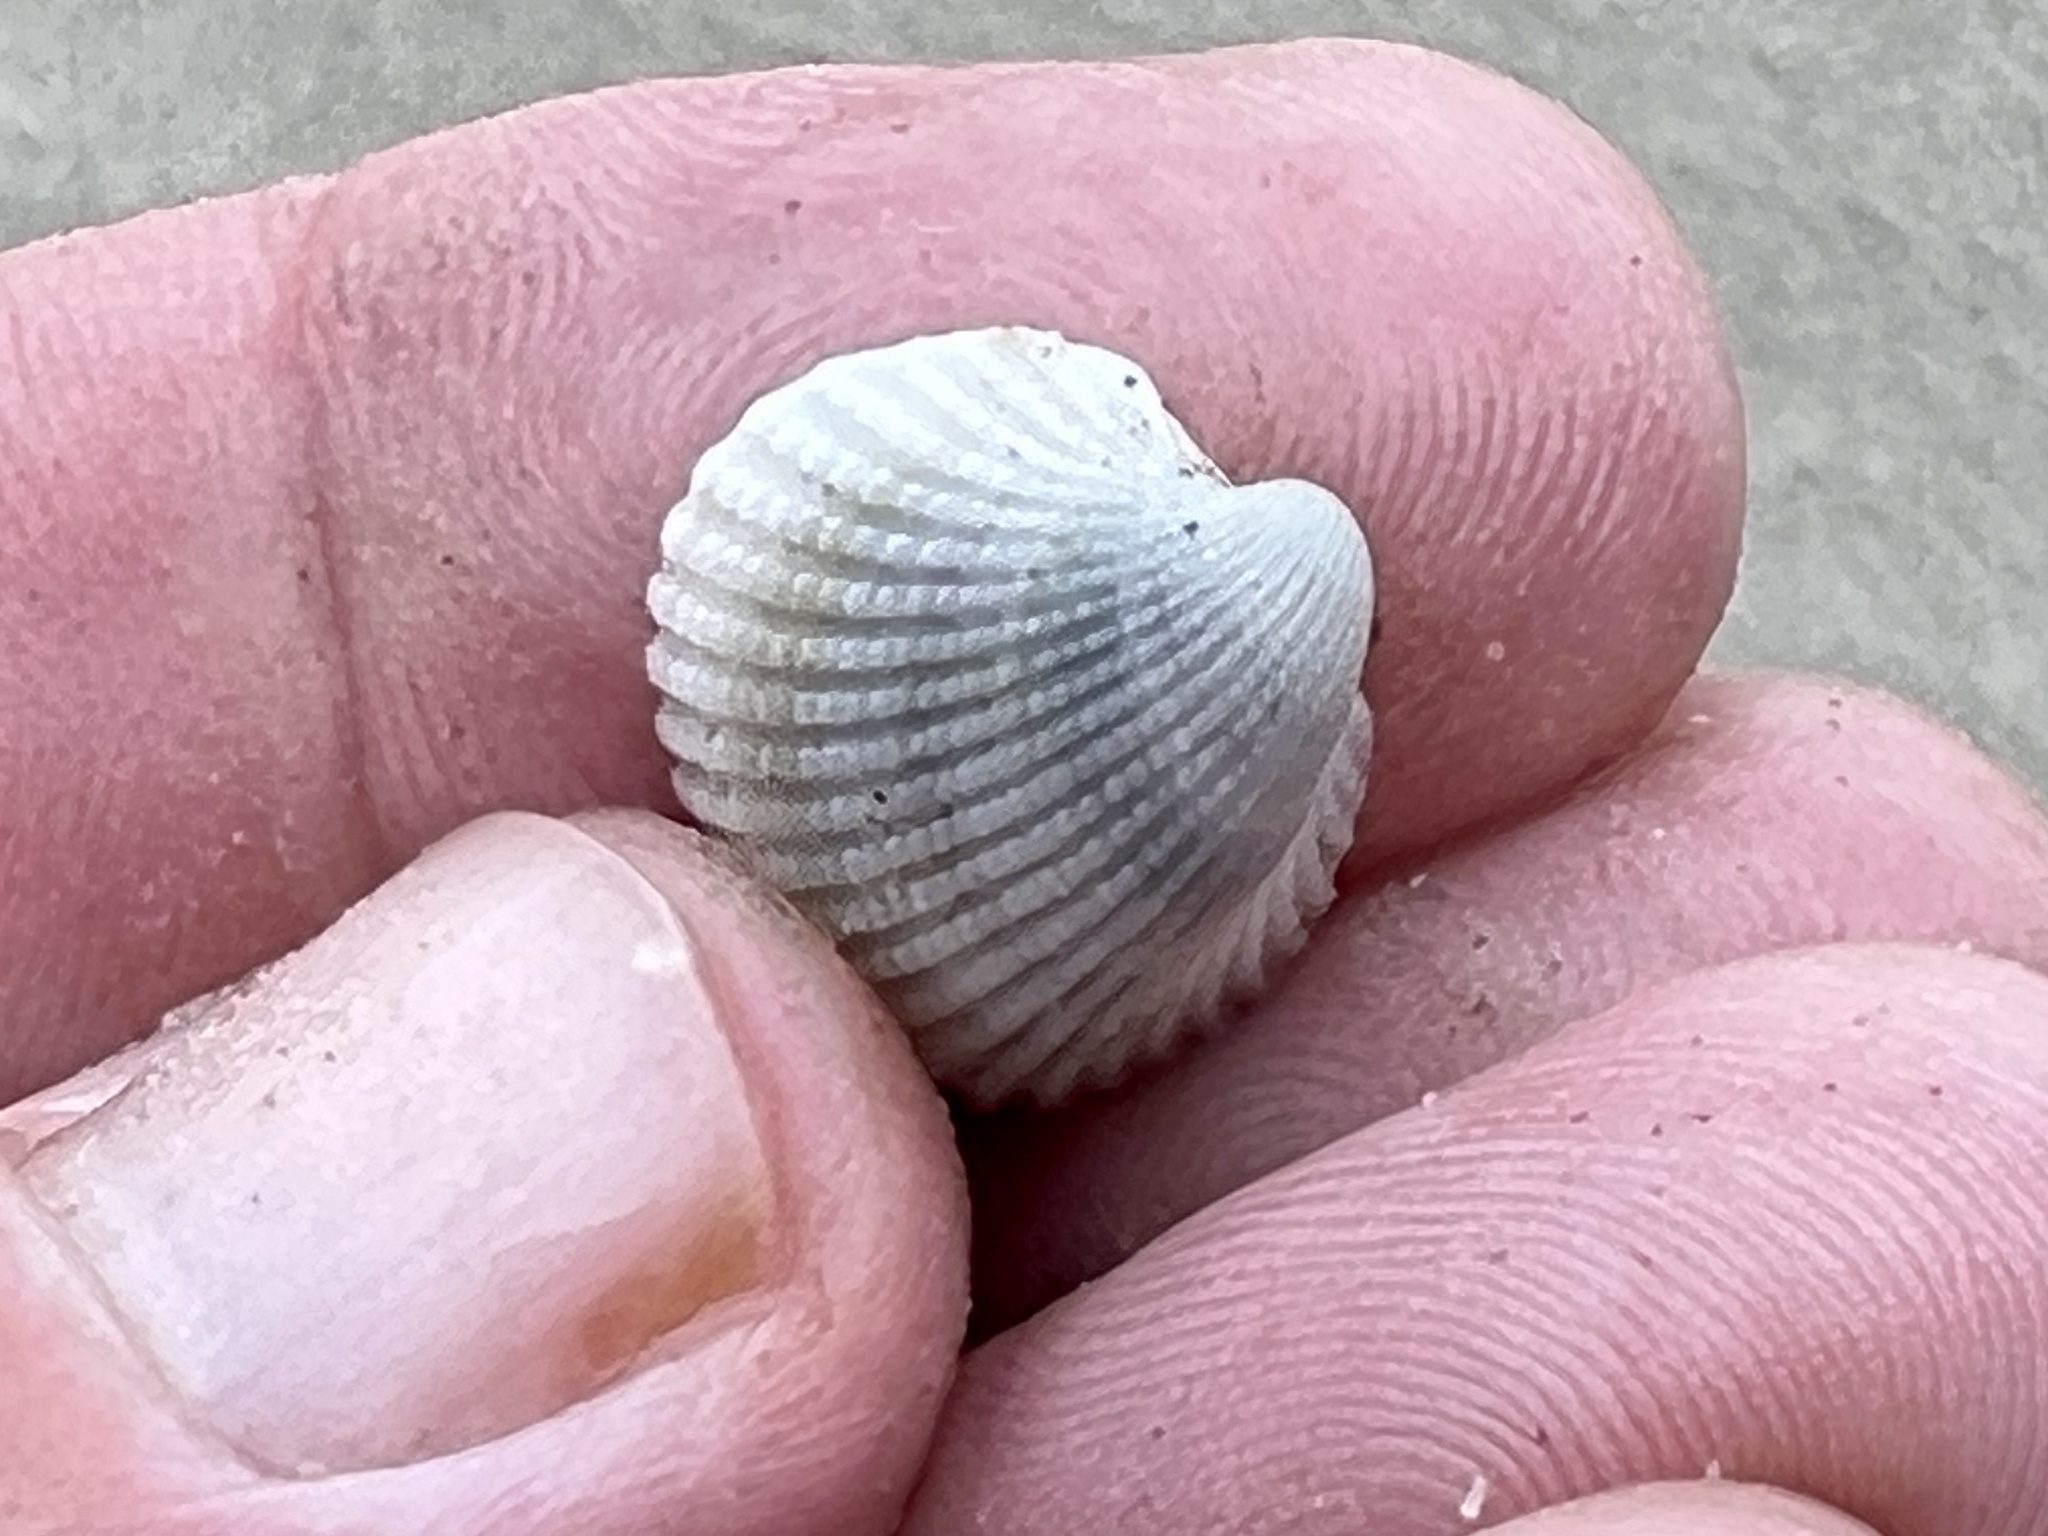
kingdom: Animalia
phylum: Mollusca
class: Bivalvia
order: Arcida
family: Arcidae
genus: Anadara
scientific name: Anadara chemnitzii
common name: Chemnitz's triangular ark
